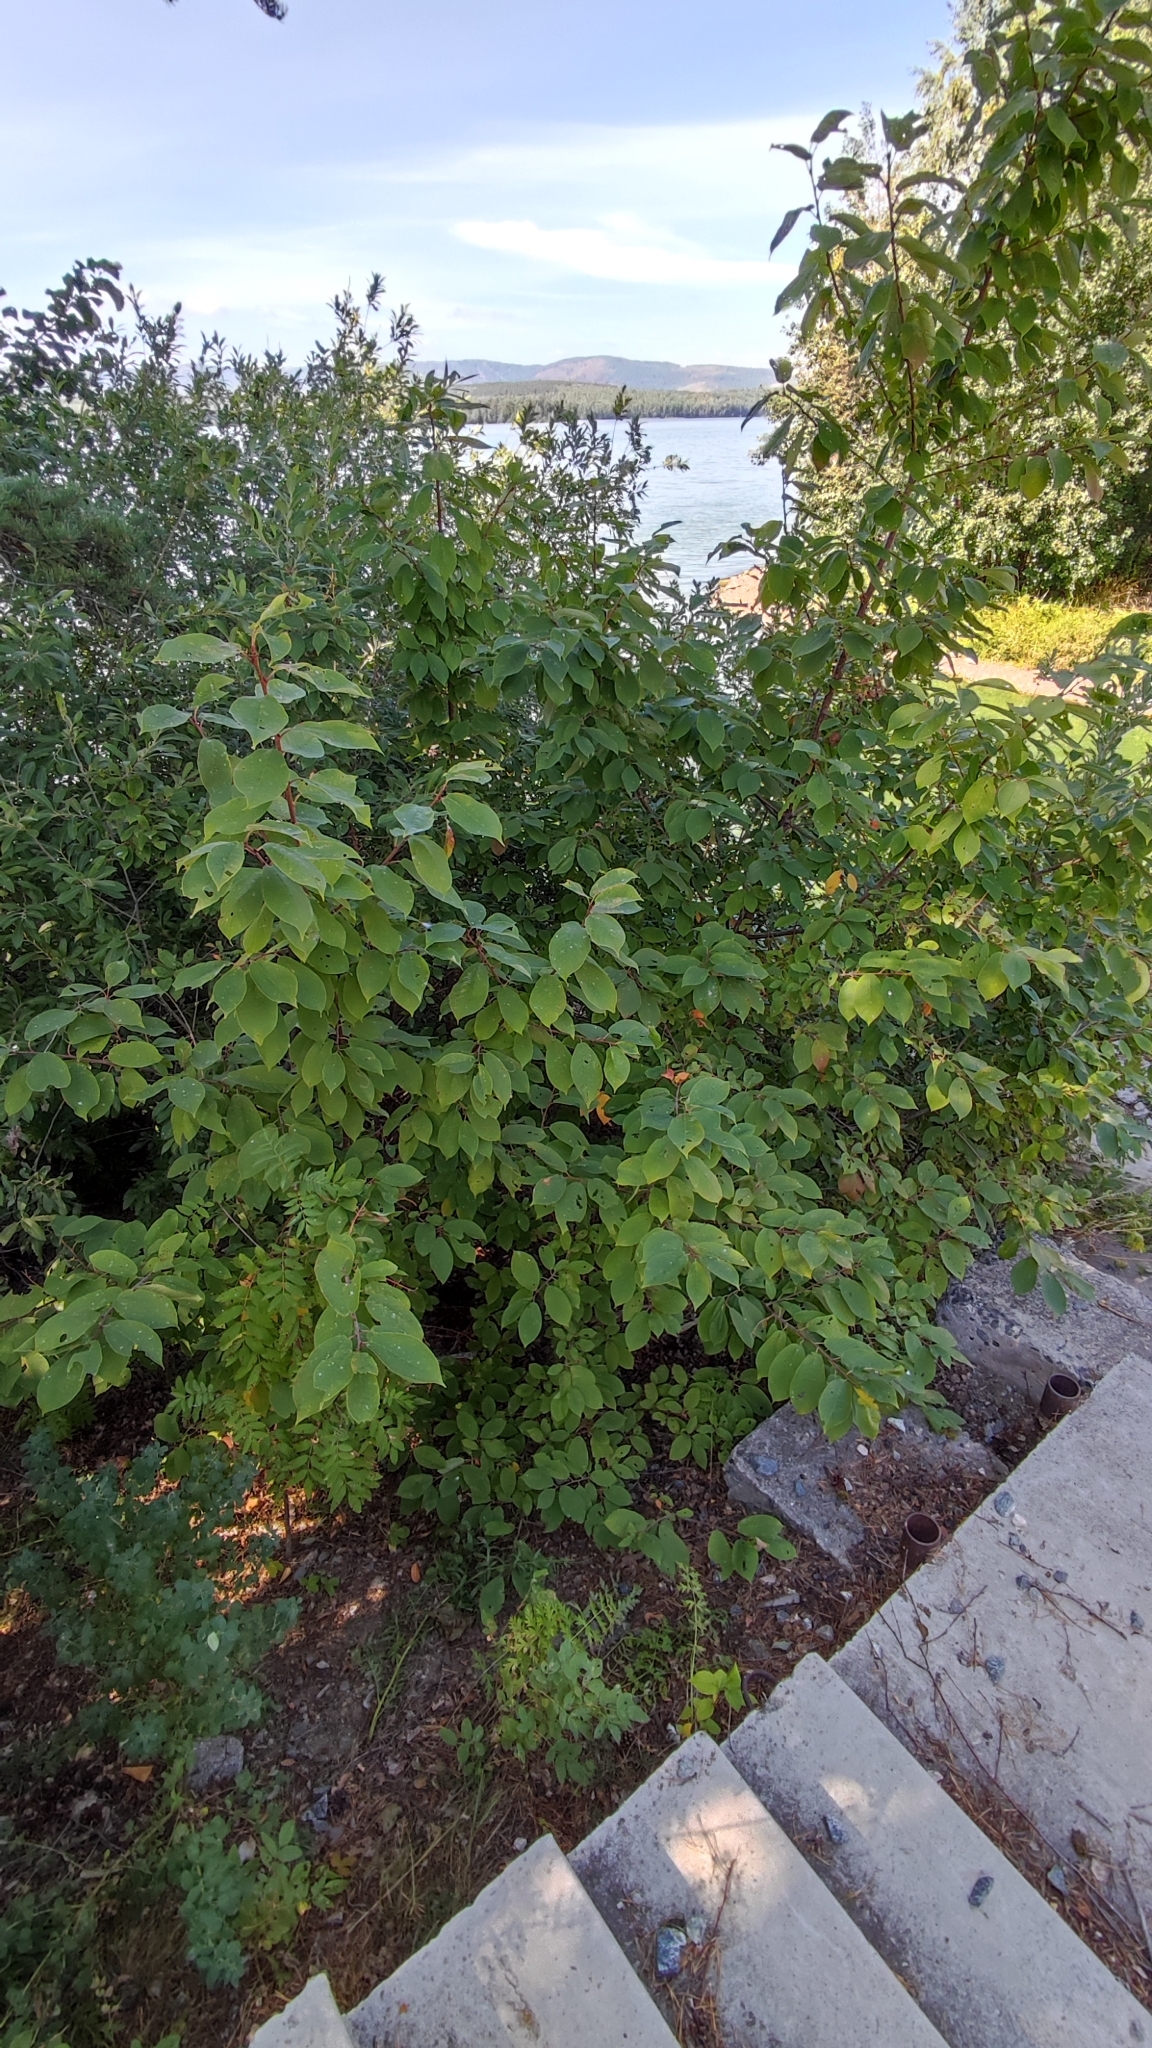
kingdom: Plantae
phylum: Tracheophyta
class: Magnoliopsida
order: Rosales
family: Rosaceae
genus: Prunus
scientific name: Prunus padus
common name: Bird cherry
